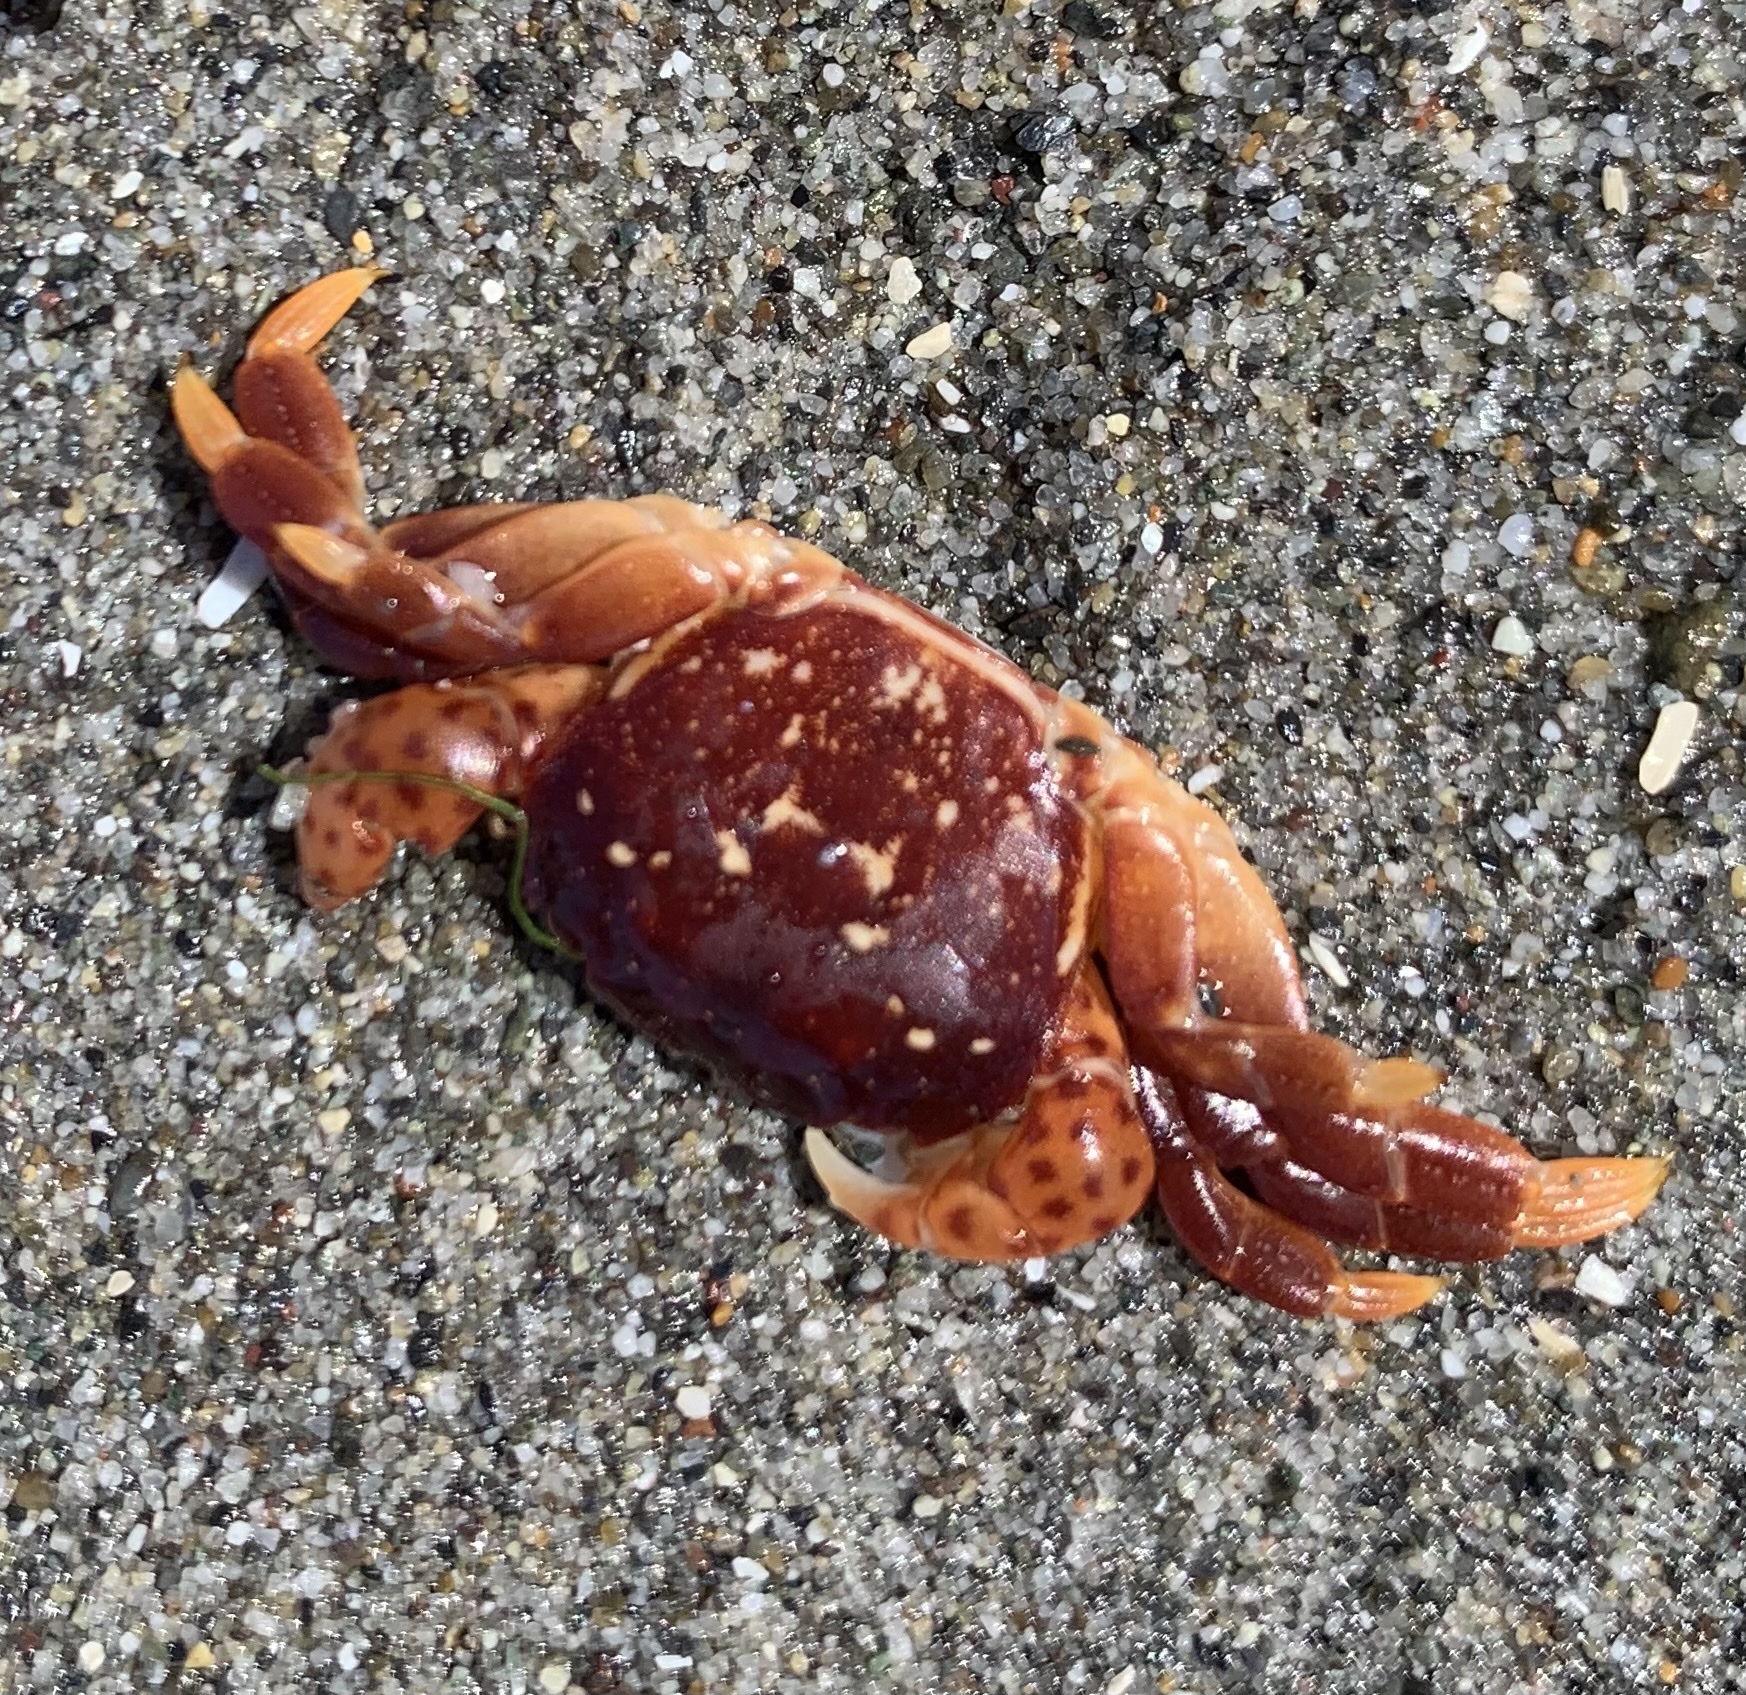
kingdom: Animalia
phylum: Arthropoda
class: Malacostraca
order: Decapoda
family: Varunidae
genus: Hemigrapsus
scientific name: Hemigrapsus nudus
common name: Purple shore crab
